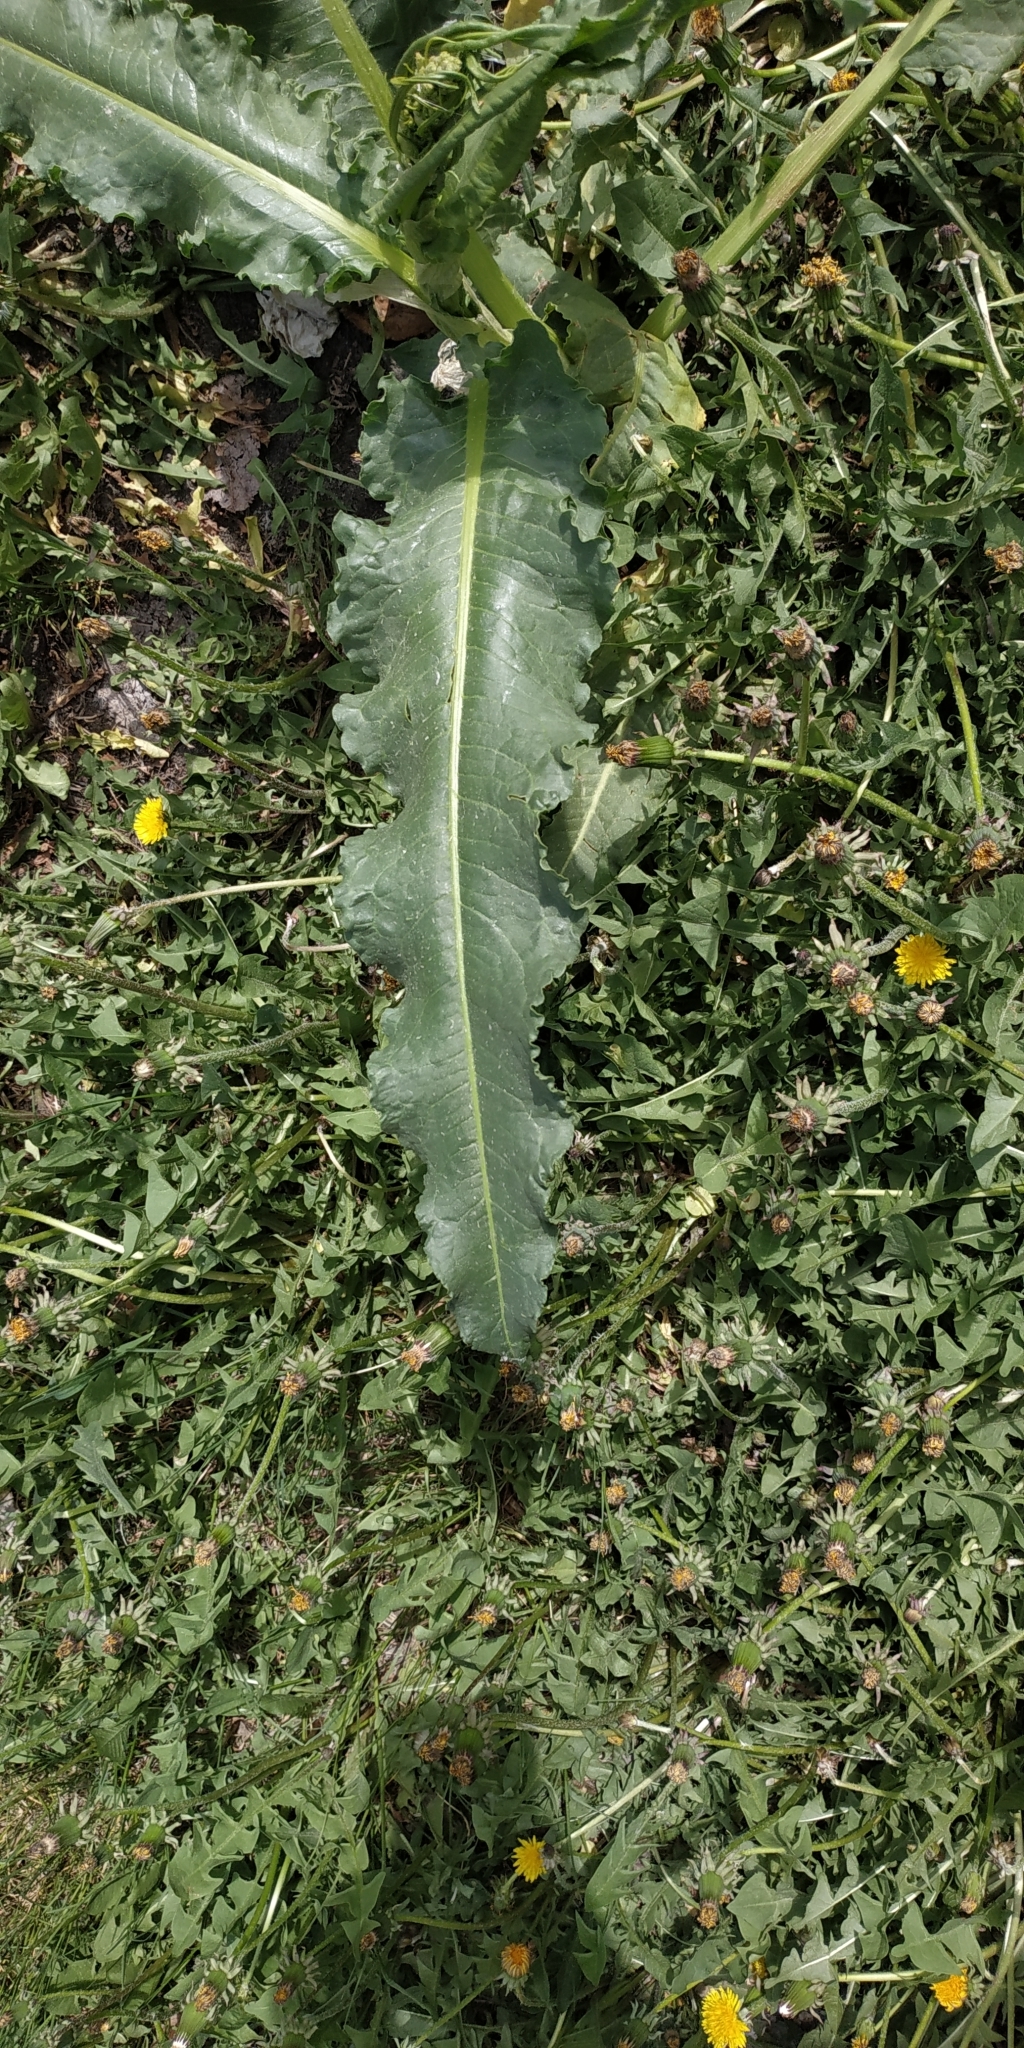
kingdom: Plantae
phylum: Tracheophyta
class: Magnoliopsida
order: Caryophyllales
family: Polygonaceae
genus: Rumex
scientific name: Rumex pseudonatronatus
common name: Field dock
